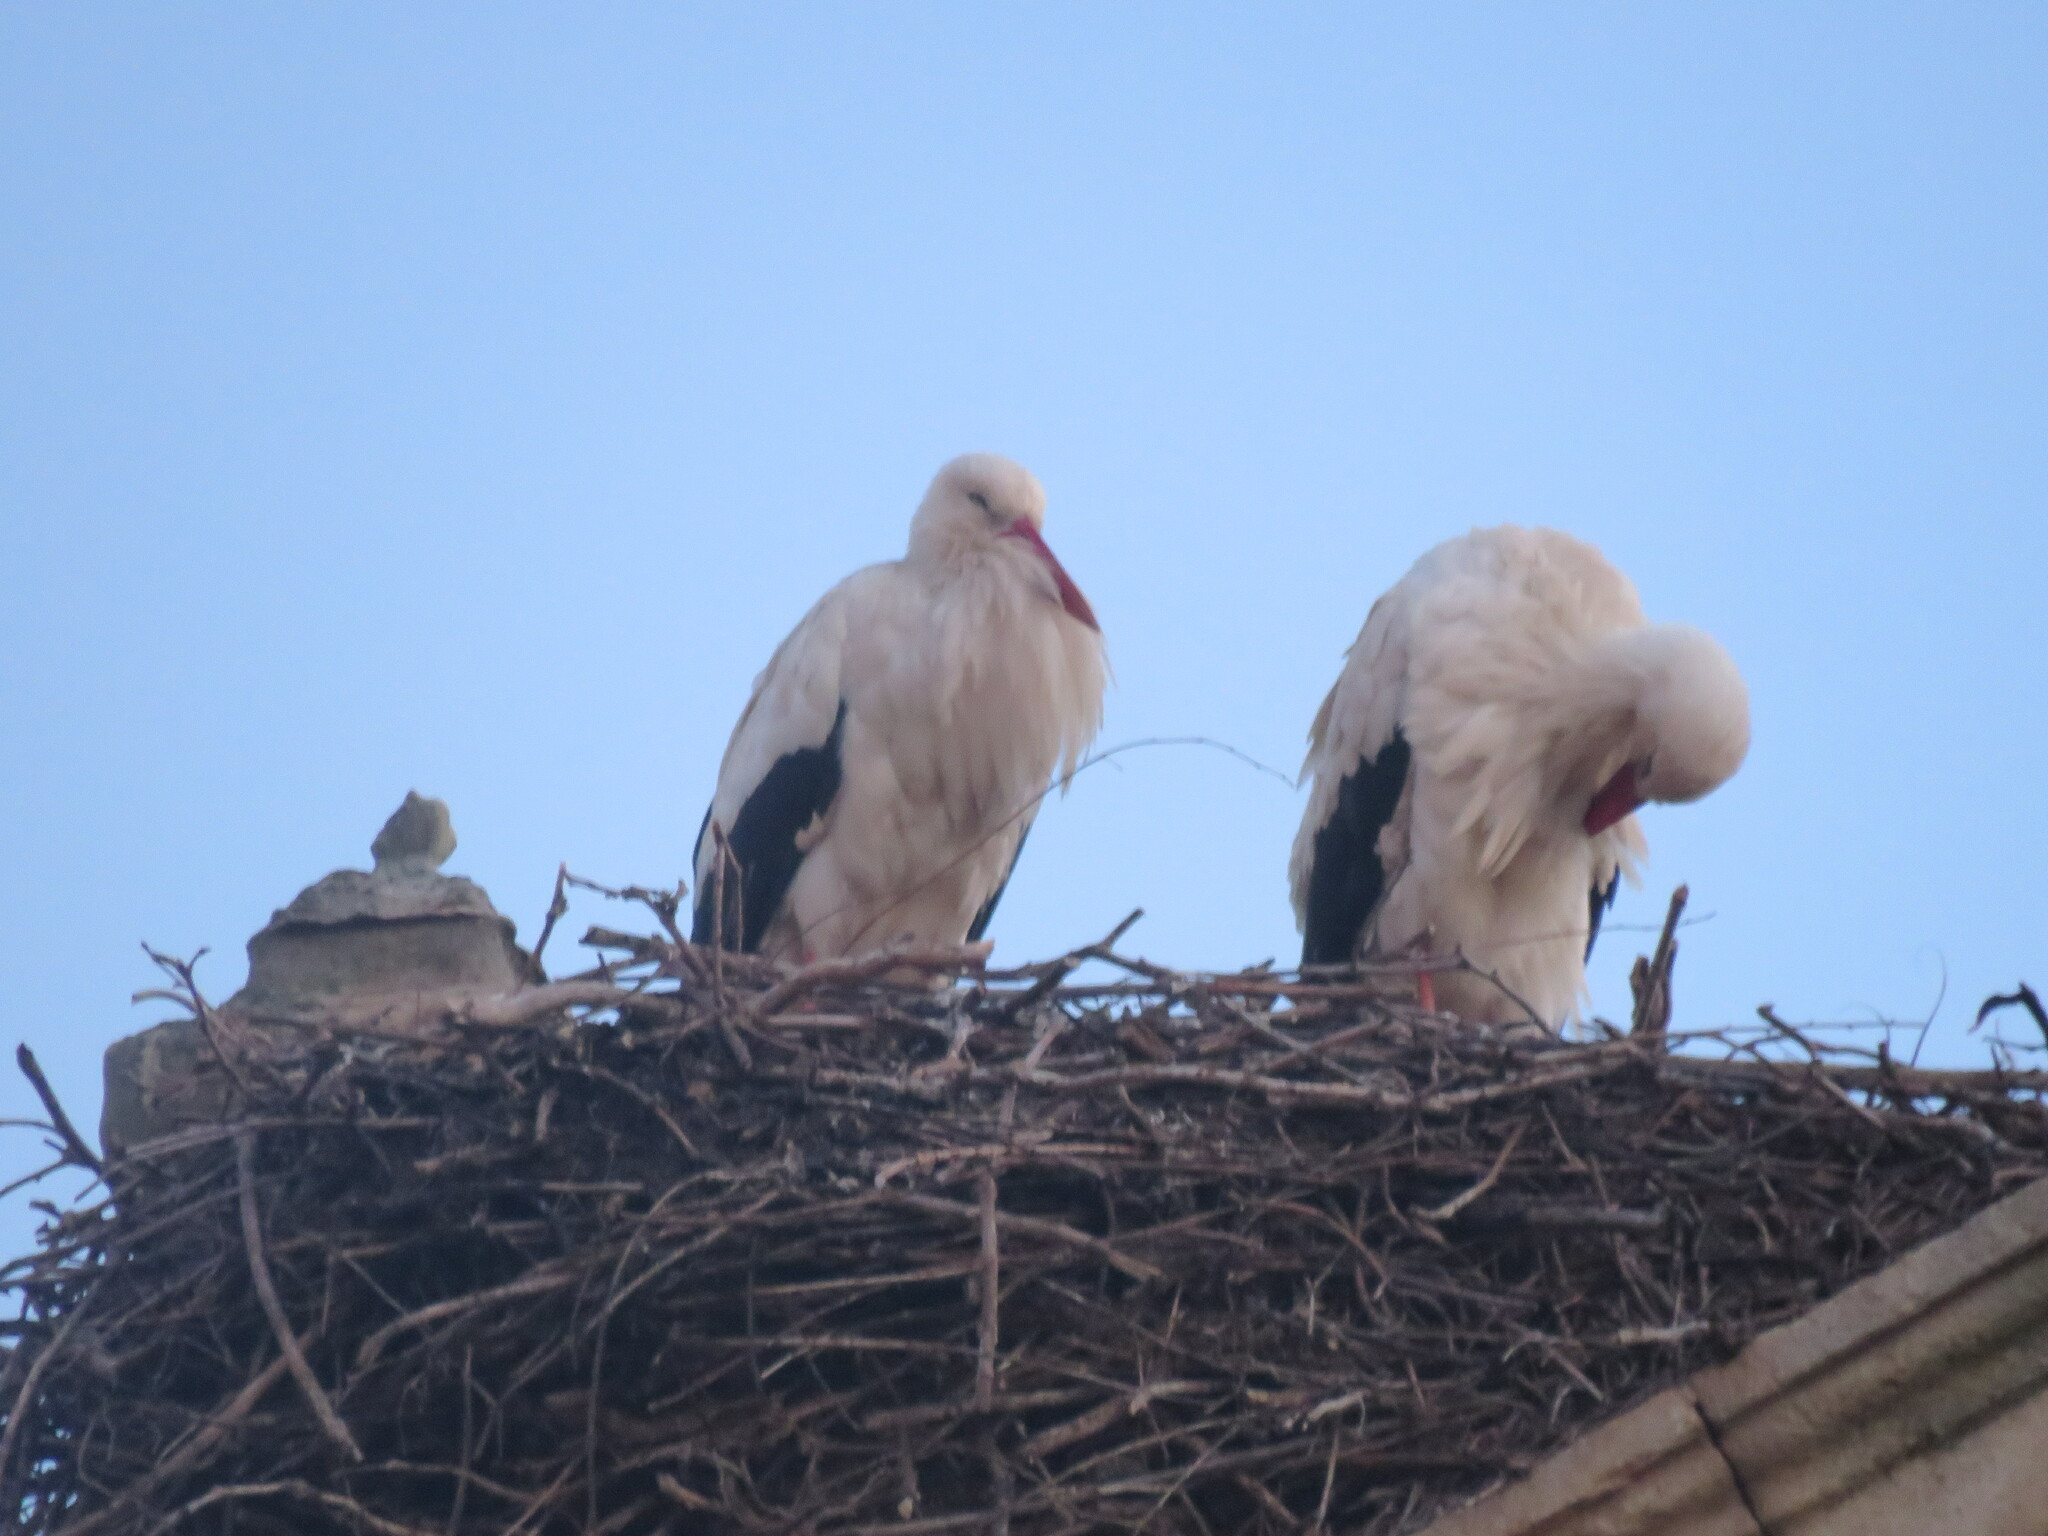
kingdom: Animalia
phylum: Chordata
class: Aves
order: Ciconiiformes
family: Ciconiidae
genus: Ciconia
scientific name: Ciconia ciconia
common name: White stork
